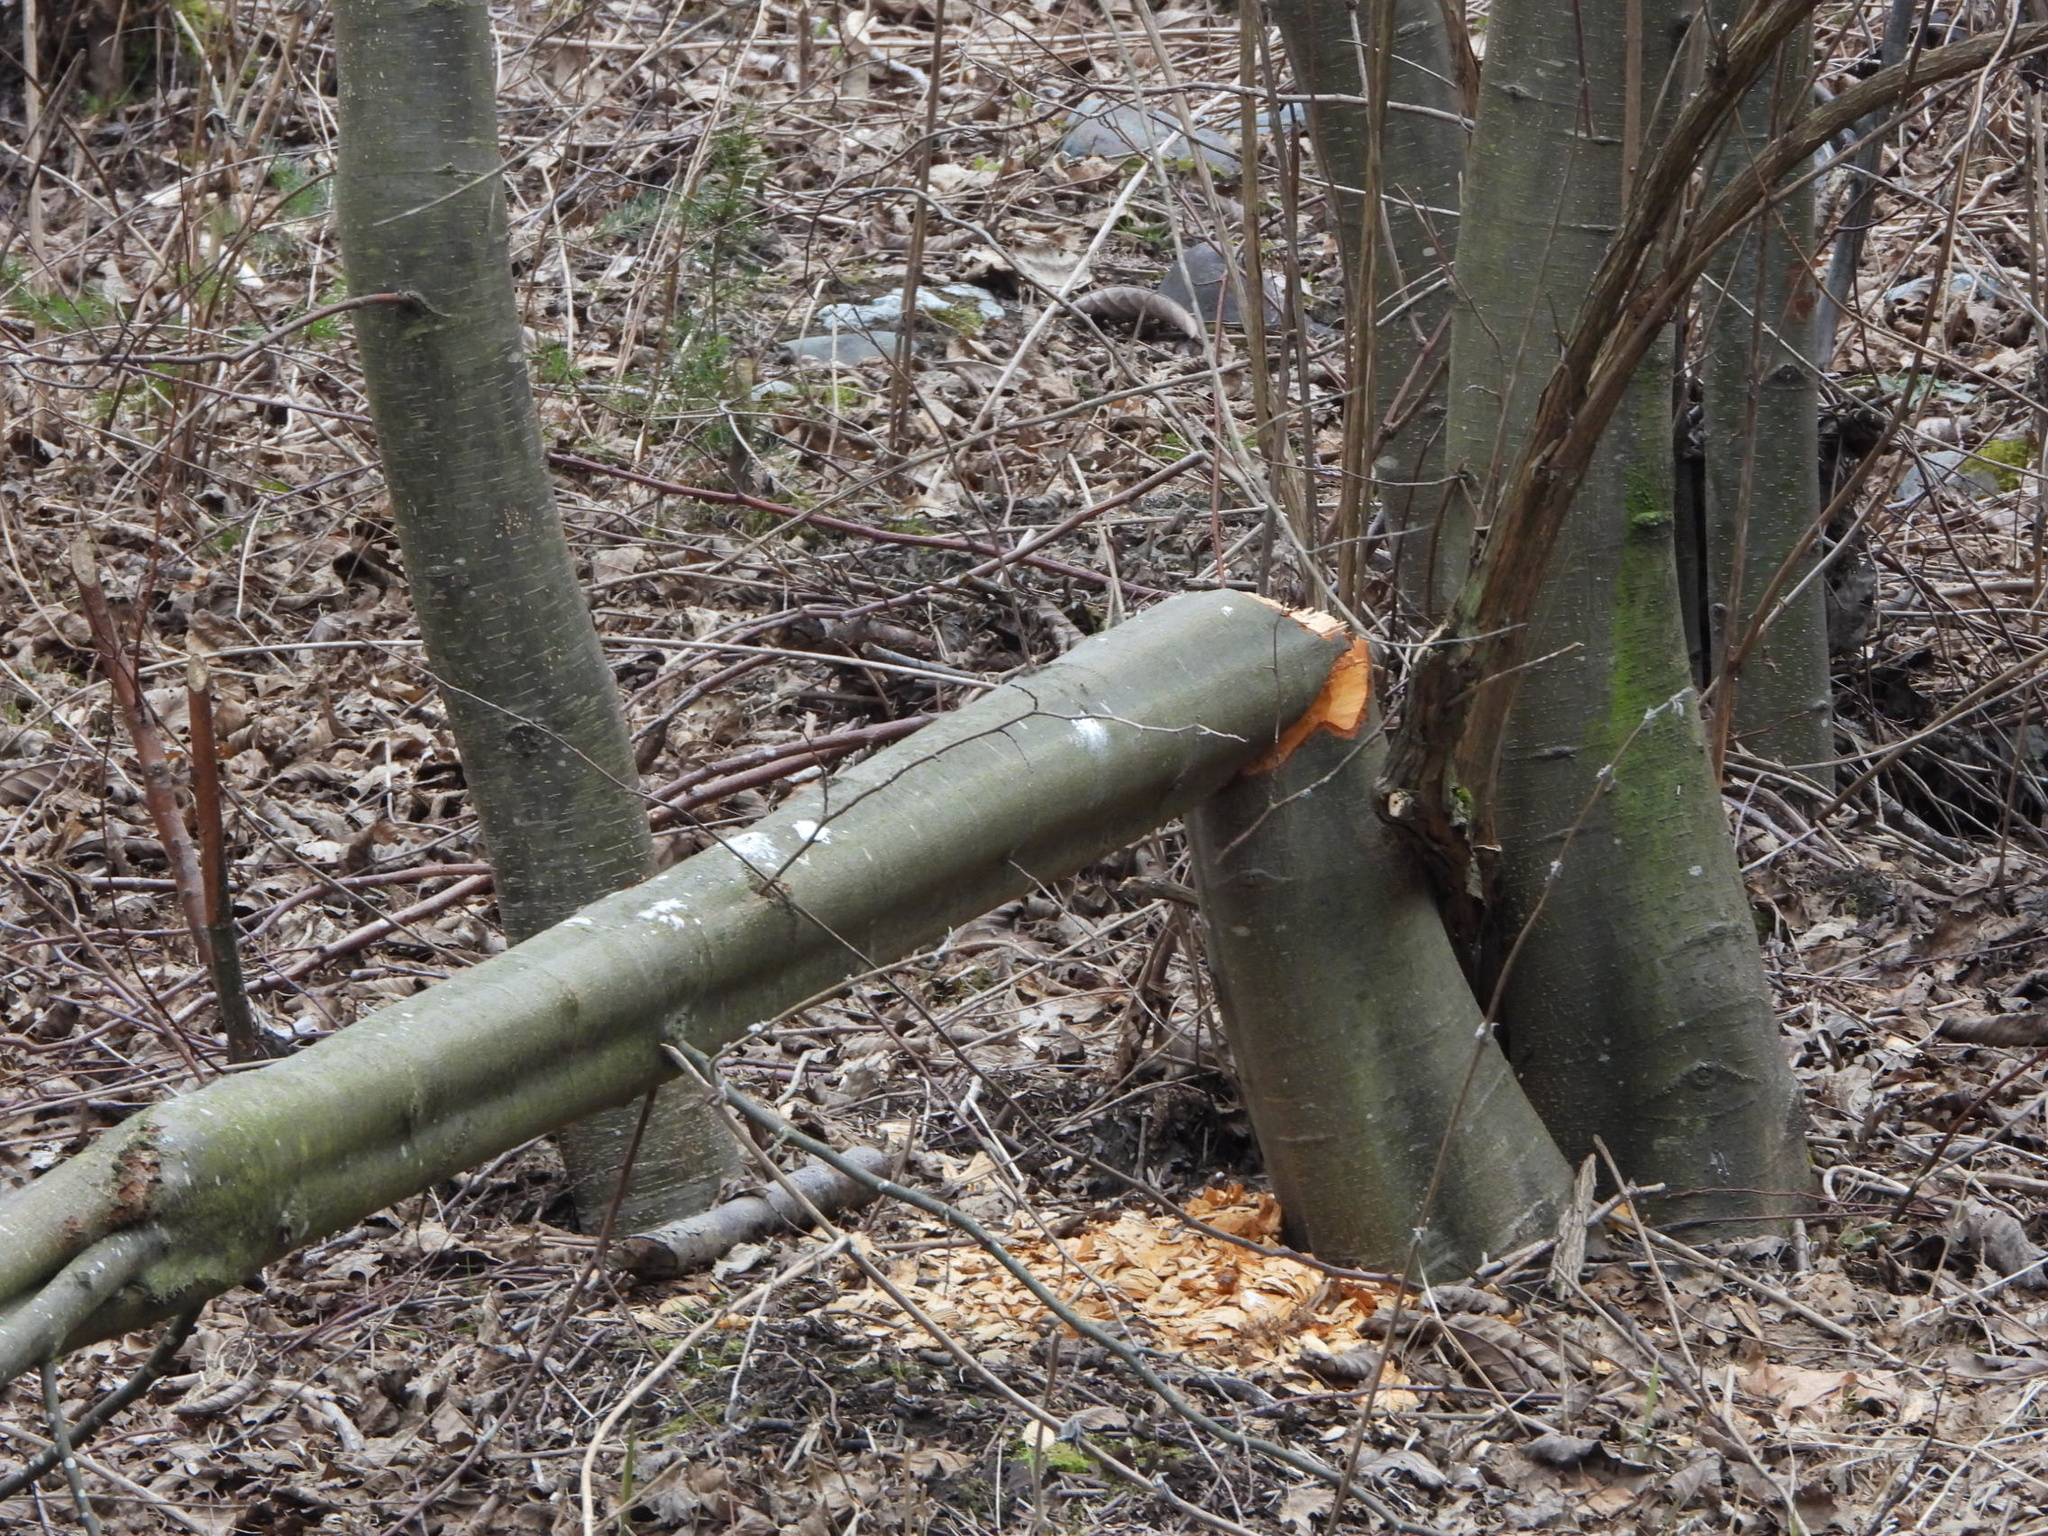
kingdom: Animalia
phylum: Chordata
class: Mammalia
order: Rodentia
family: Castoridae
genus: Castor
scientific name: Castor canadensis
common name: American beaver
